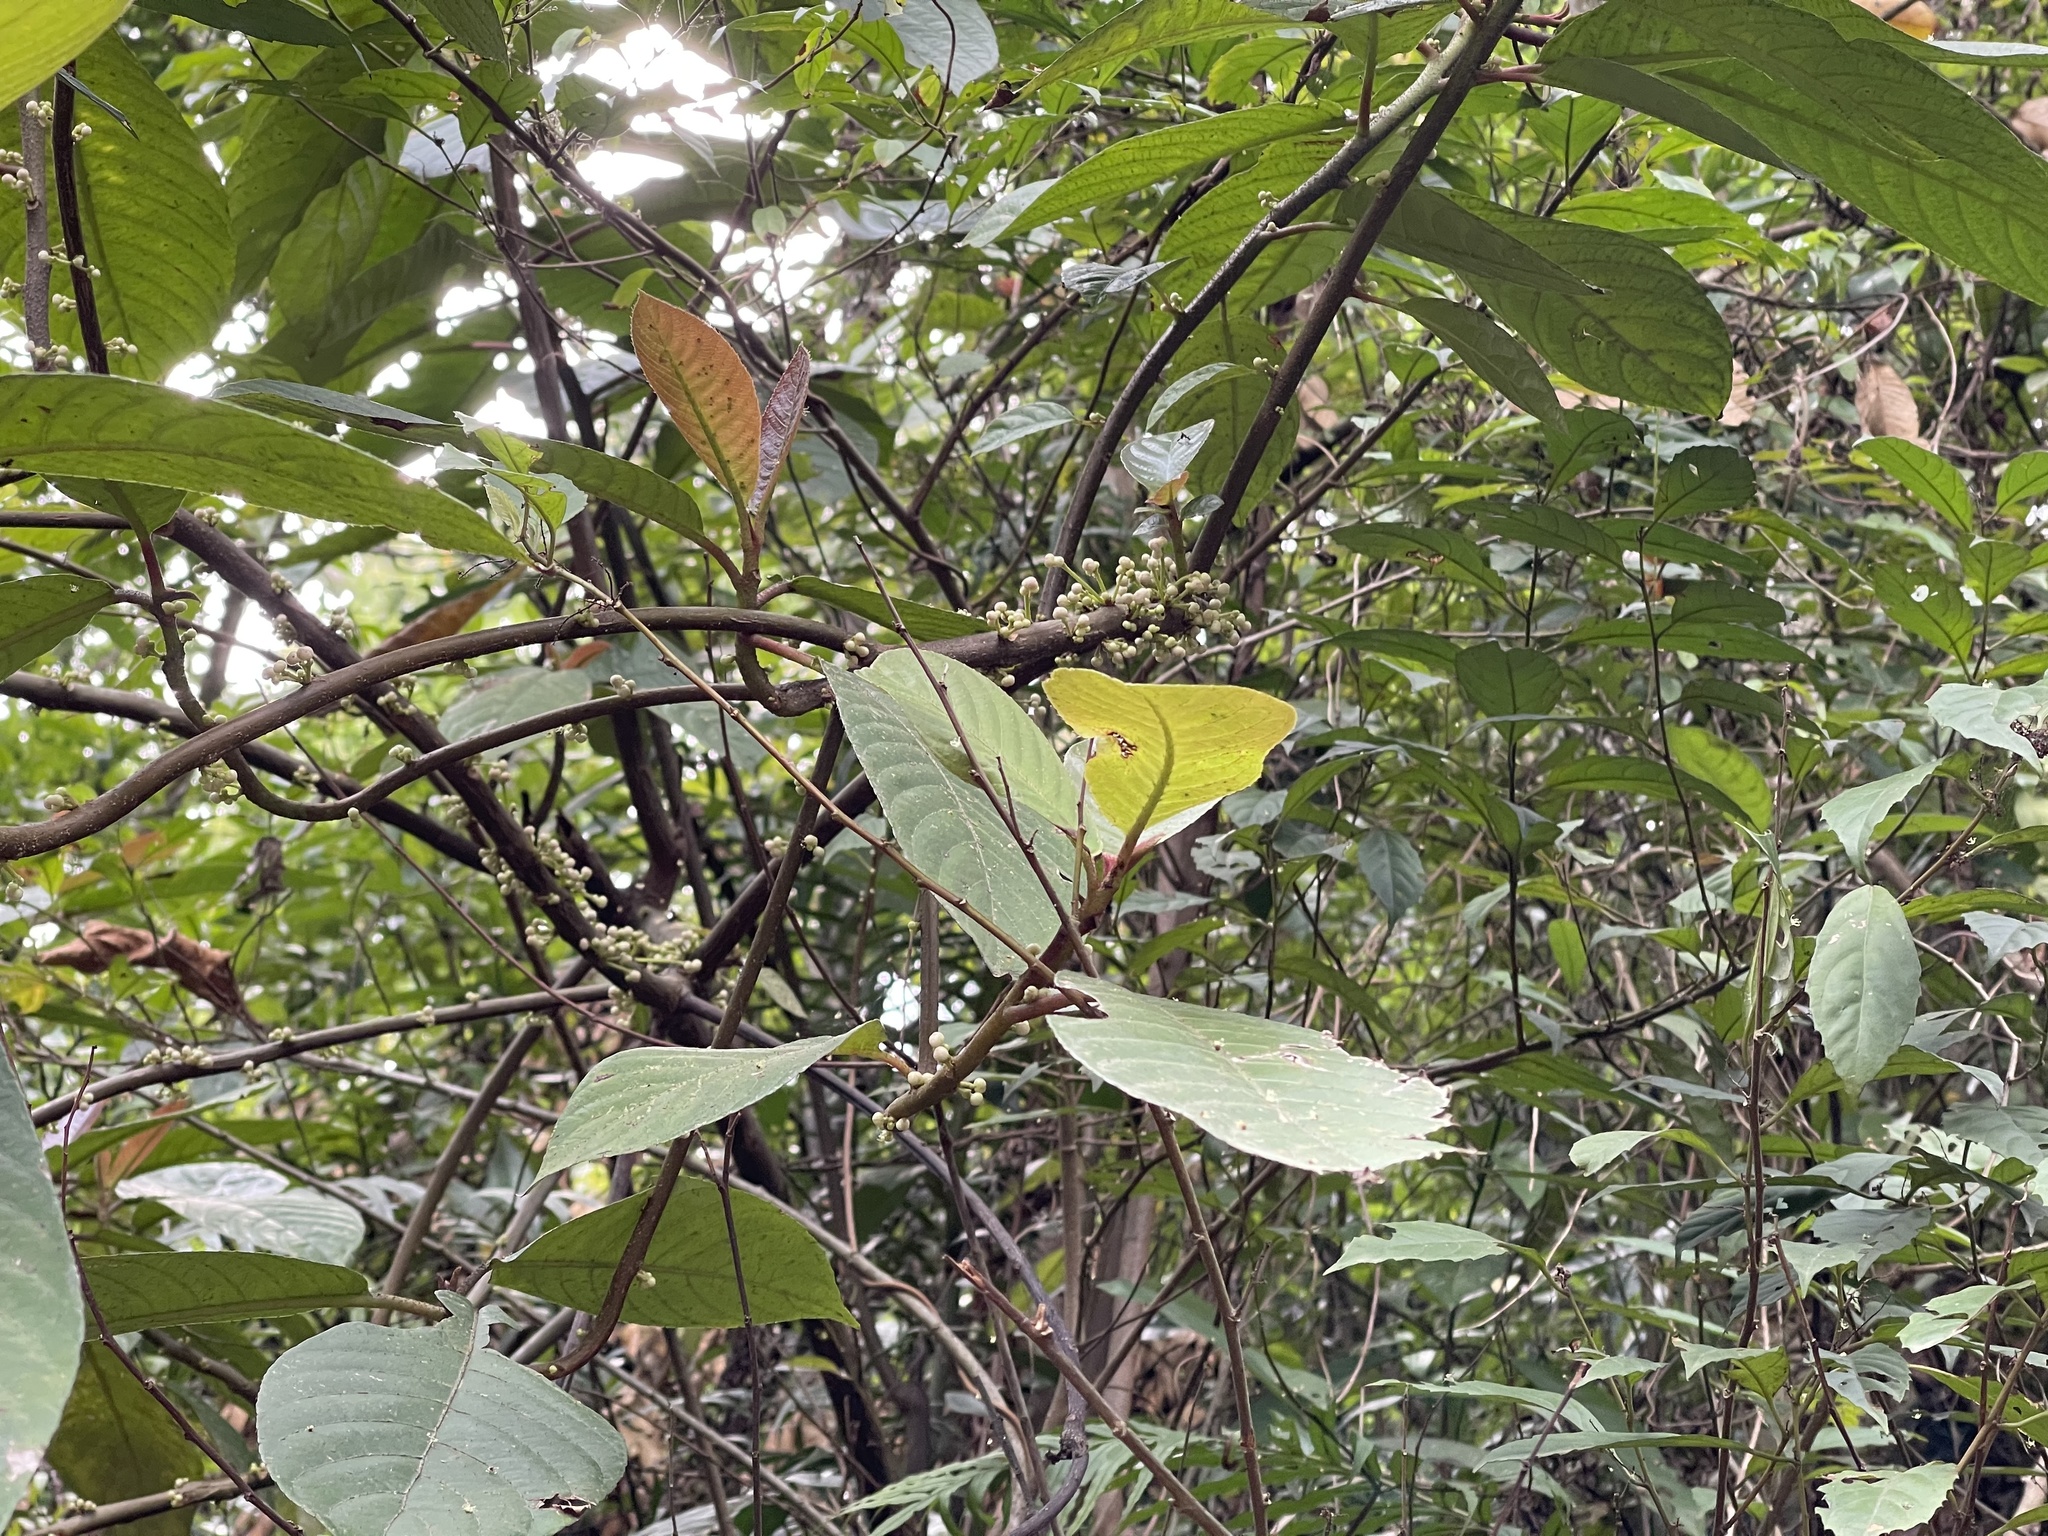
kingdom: Plantae
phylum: Tracheophyta
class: Magnoliopsida
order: Ericales
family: Actinidiaceae
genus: Saurauia
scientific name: Saurauia tristyla
